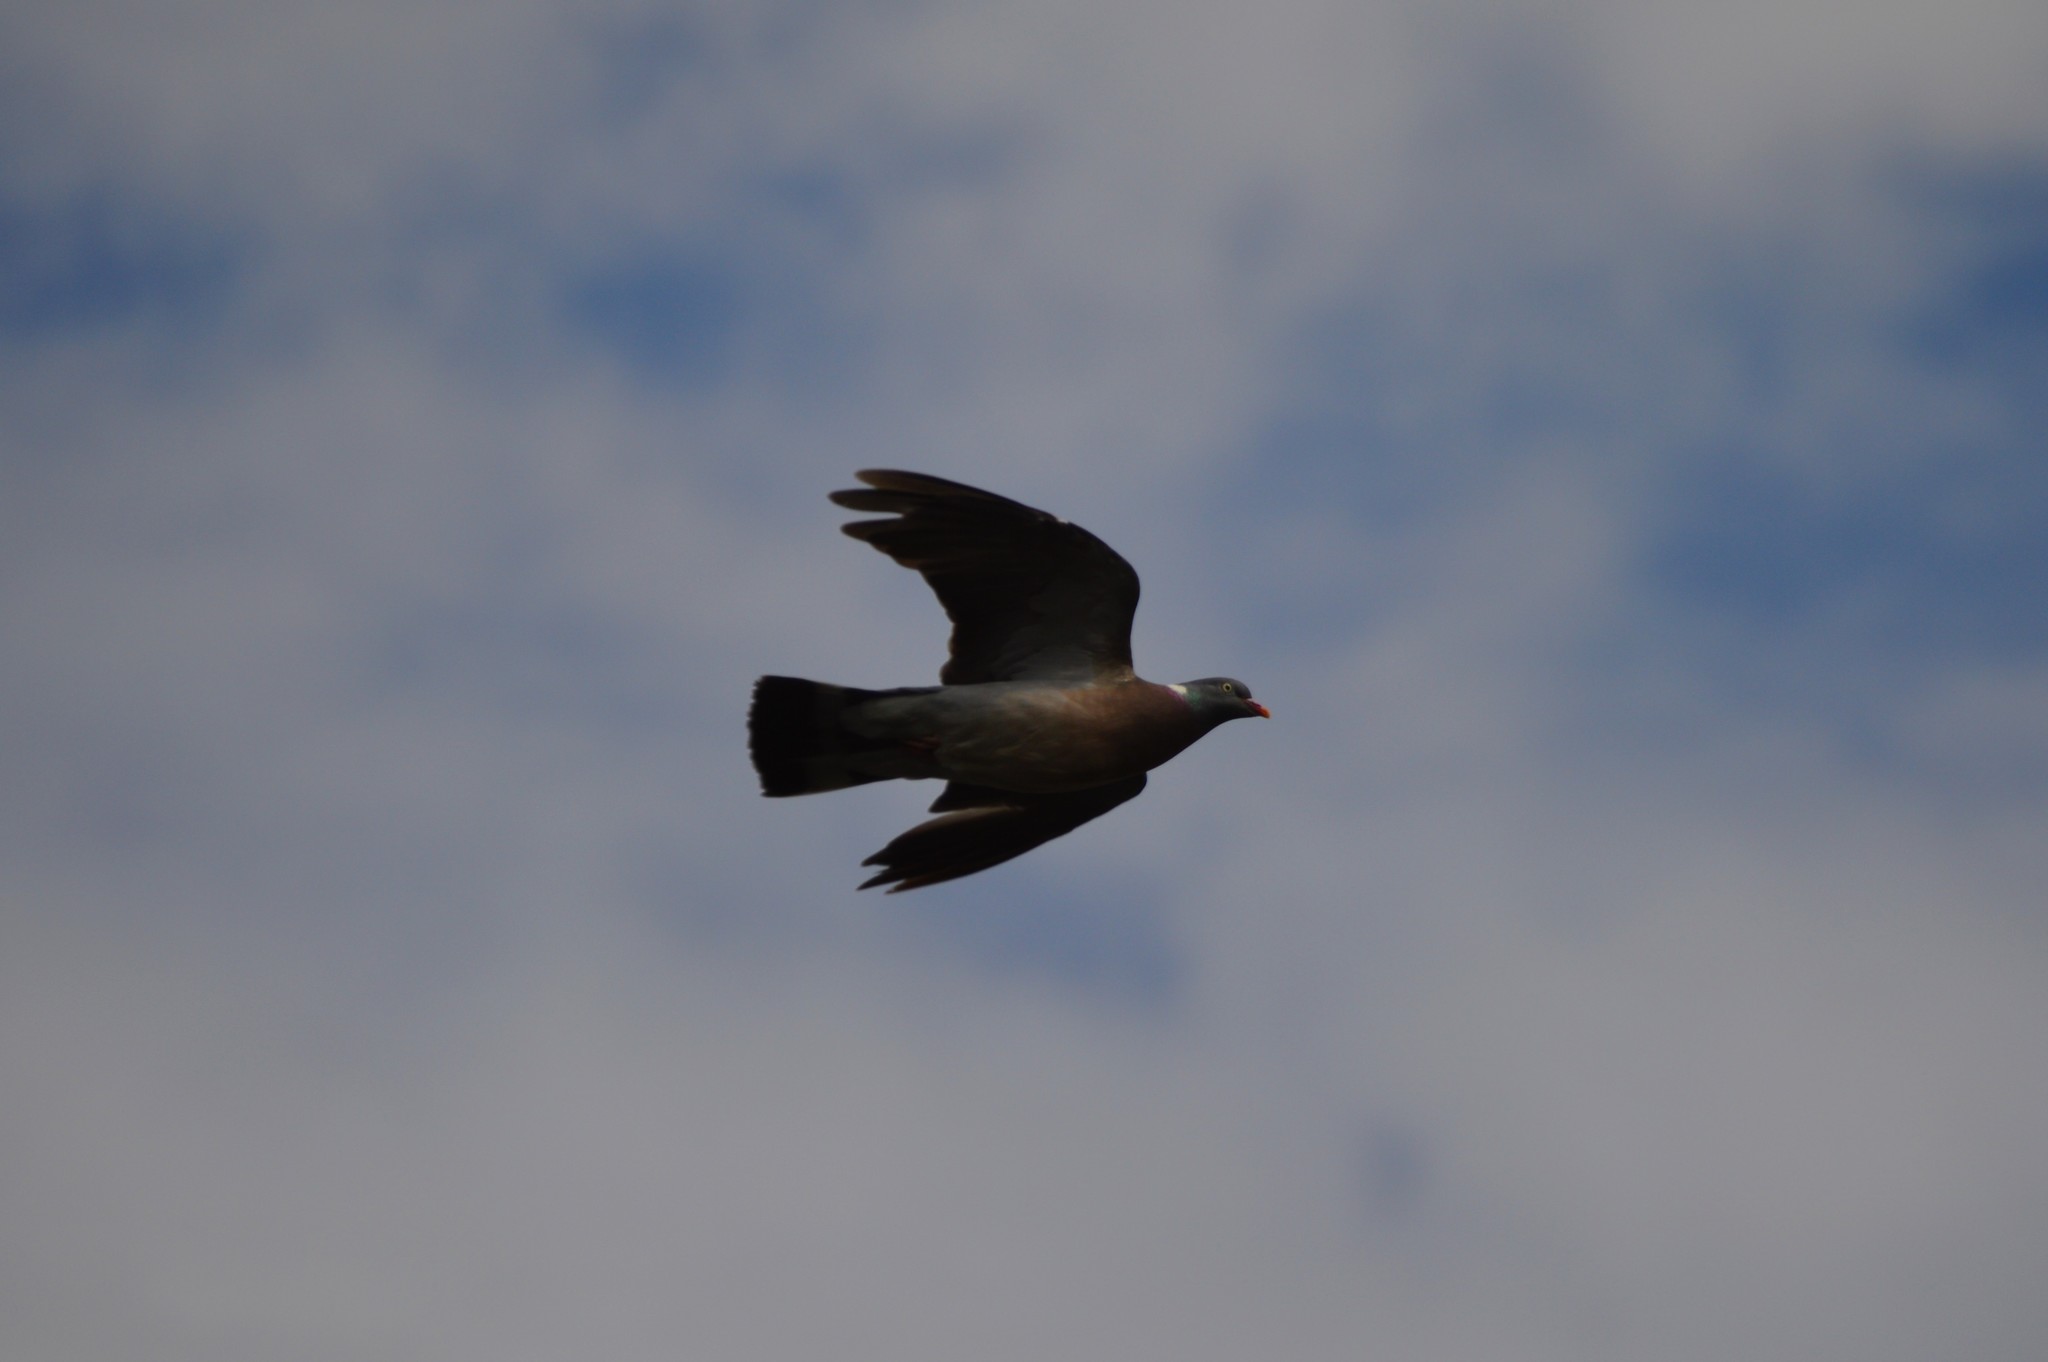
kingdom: Animalia
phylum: Chordata
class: Aves
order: Columbiformes
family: Columbidae
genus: Columba
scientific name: Columba palumbus
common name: Common wood pigeon
